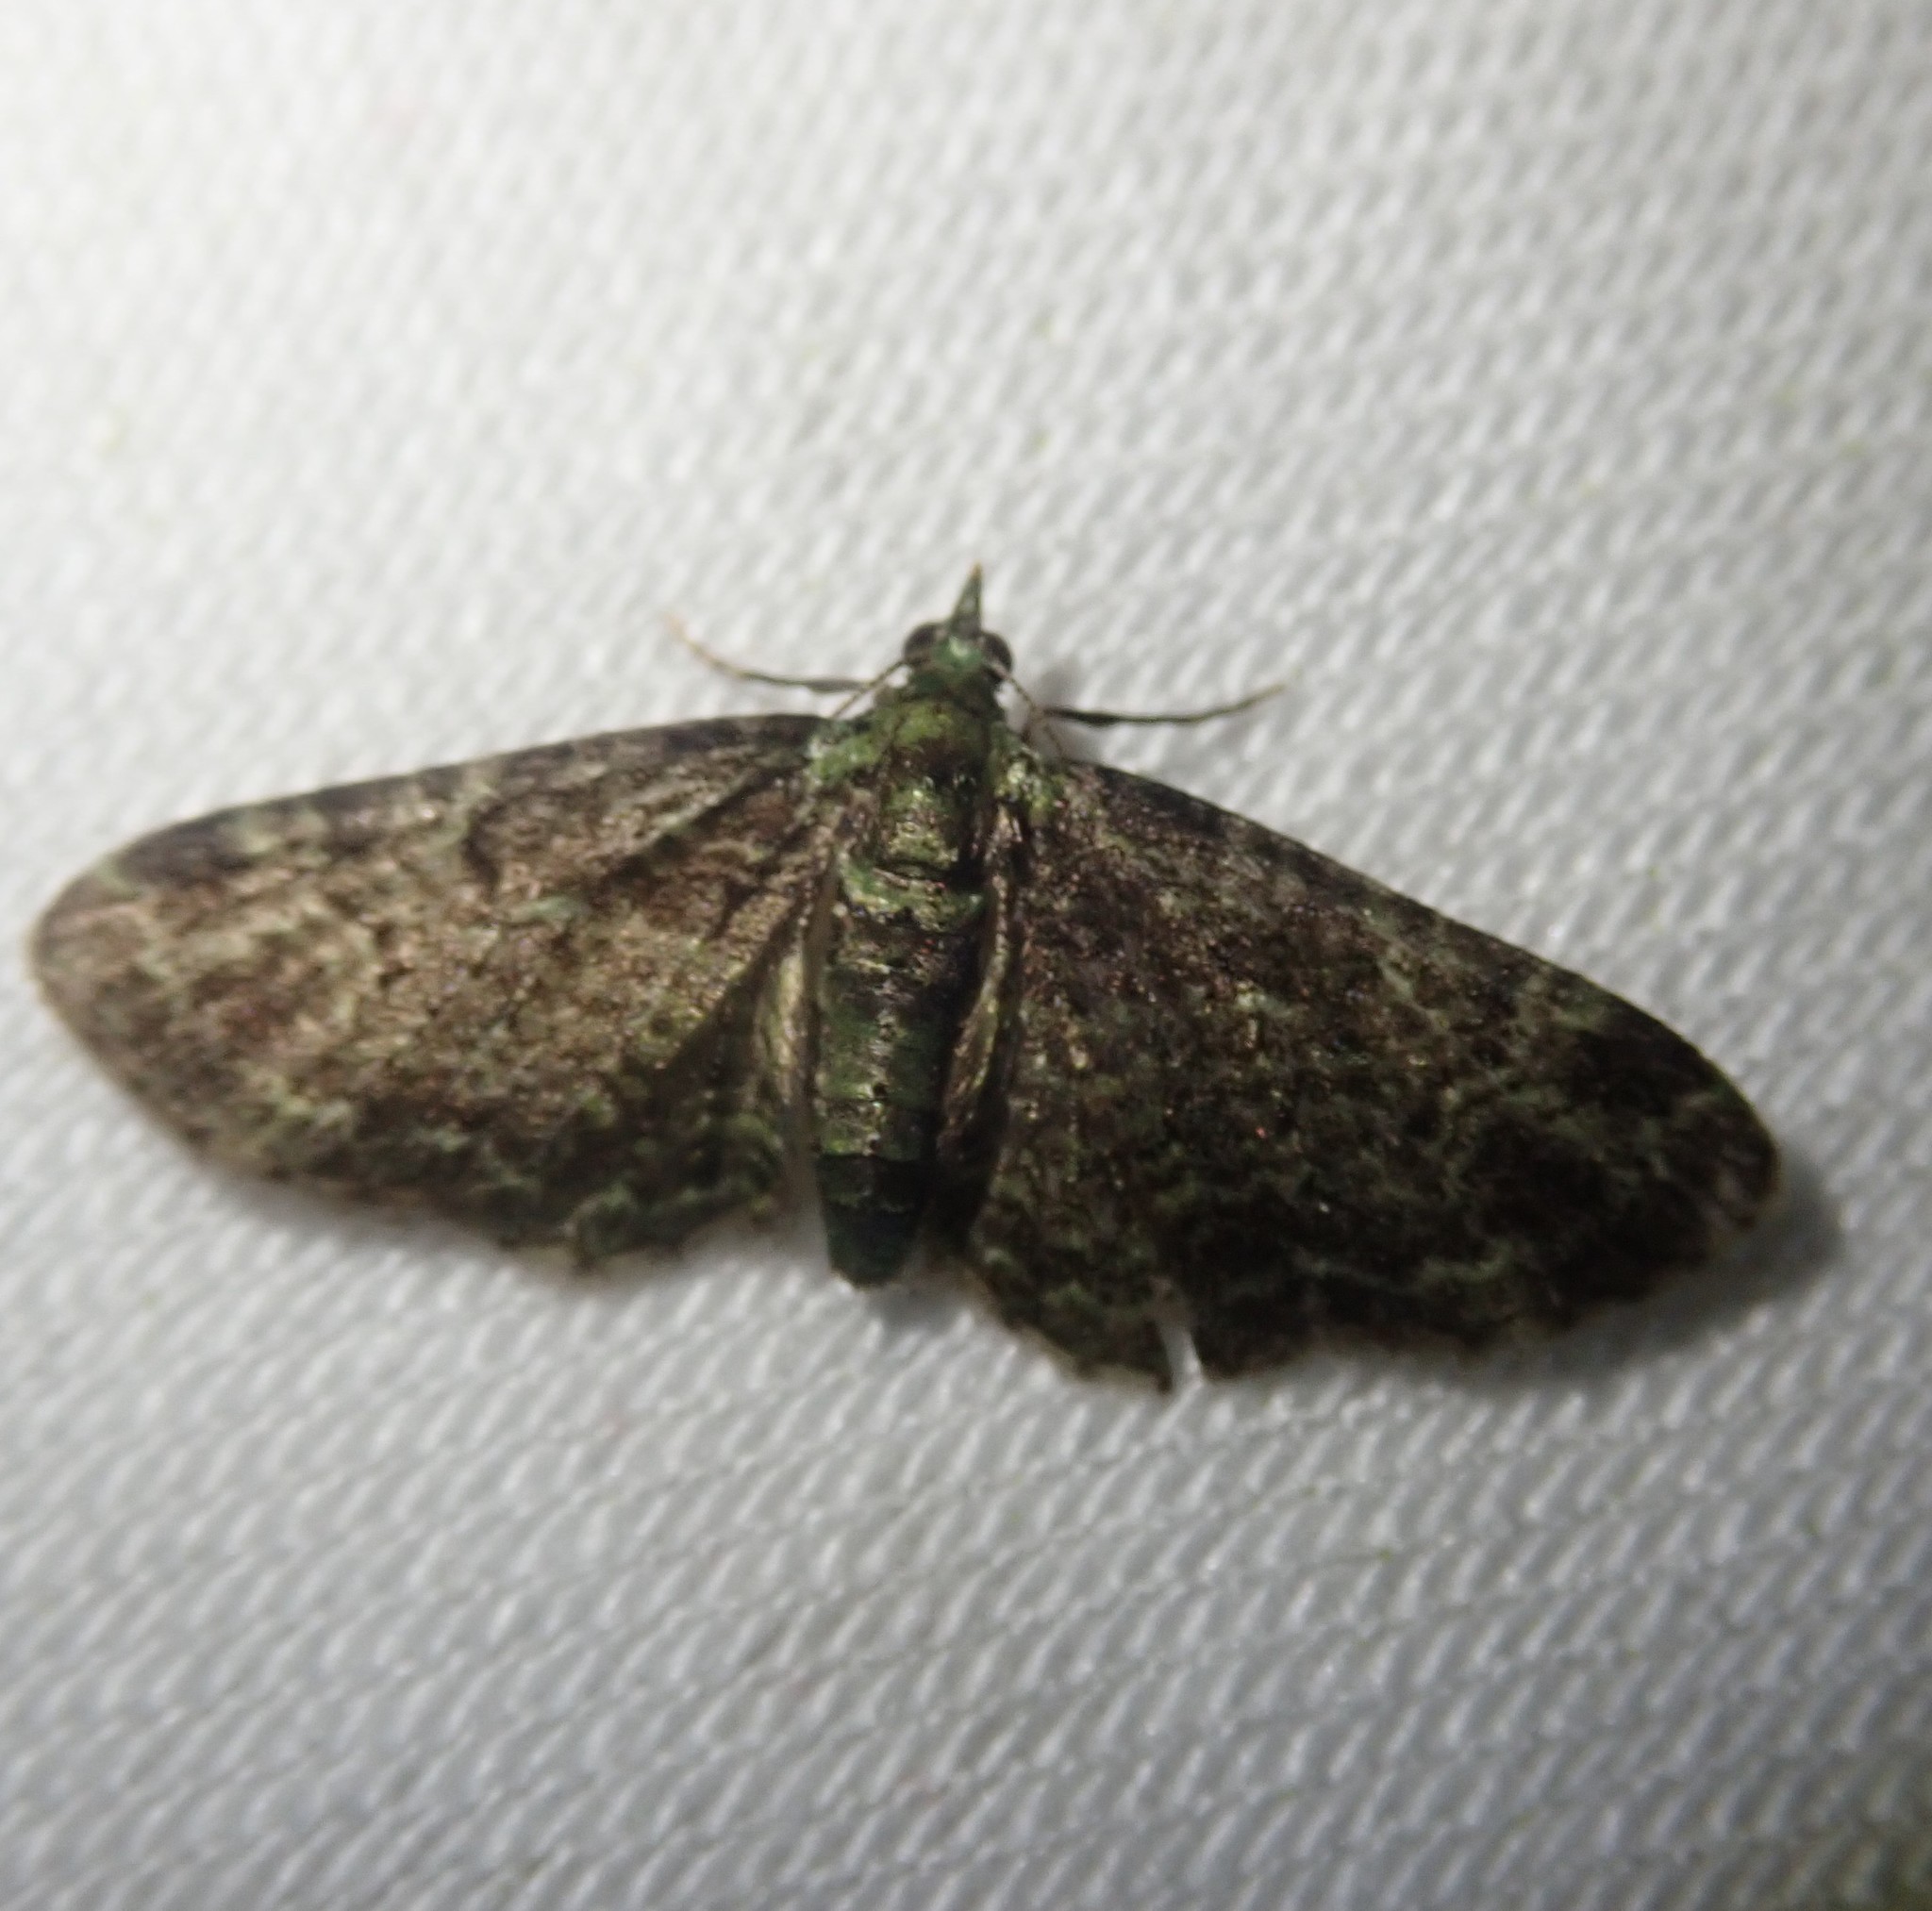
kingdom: Animalia
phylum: Arthropoda
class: Insecta
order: Lepidoptera
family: Geometridae
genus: Pasiphila
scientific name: Pasiphila rectangulata
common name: Green pug
